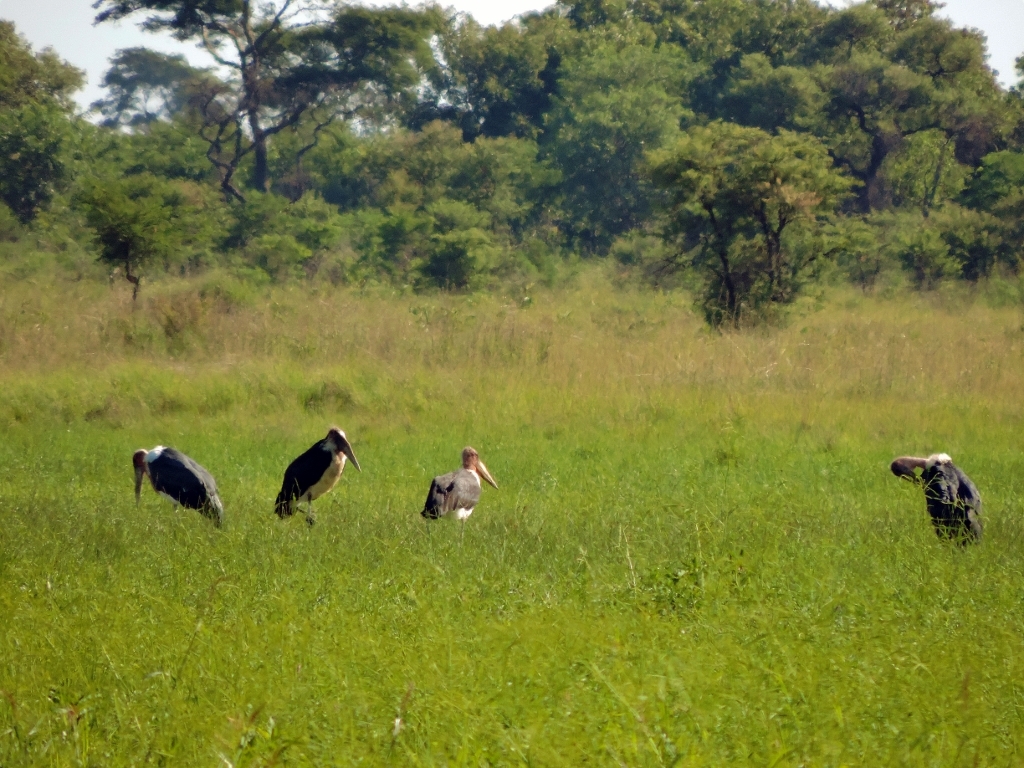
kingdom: Animalia
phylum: Chordata
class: Aves
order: Ciconiiformes
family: Ciconiidae
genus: Leptoptilos
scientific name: Leptoptilos crumenifer
